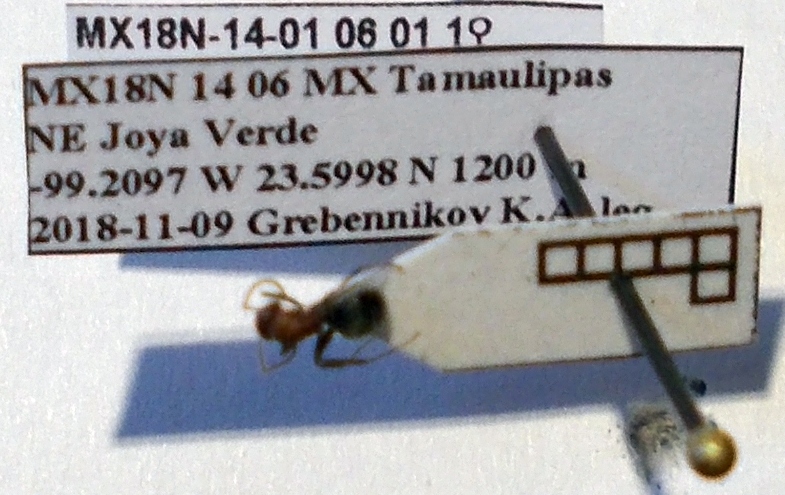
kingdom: Animalia
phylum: Arthropoda
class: Insecta
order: Hymenoptera
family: Formicidae
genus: Camponotus
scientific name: Camponotus planatus
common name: Compact carpenter ant
